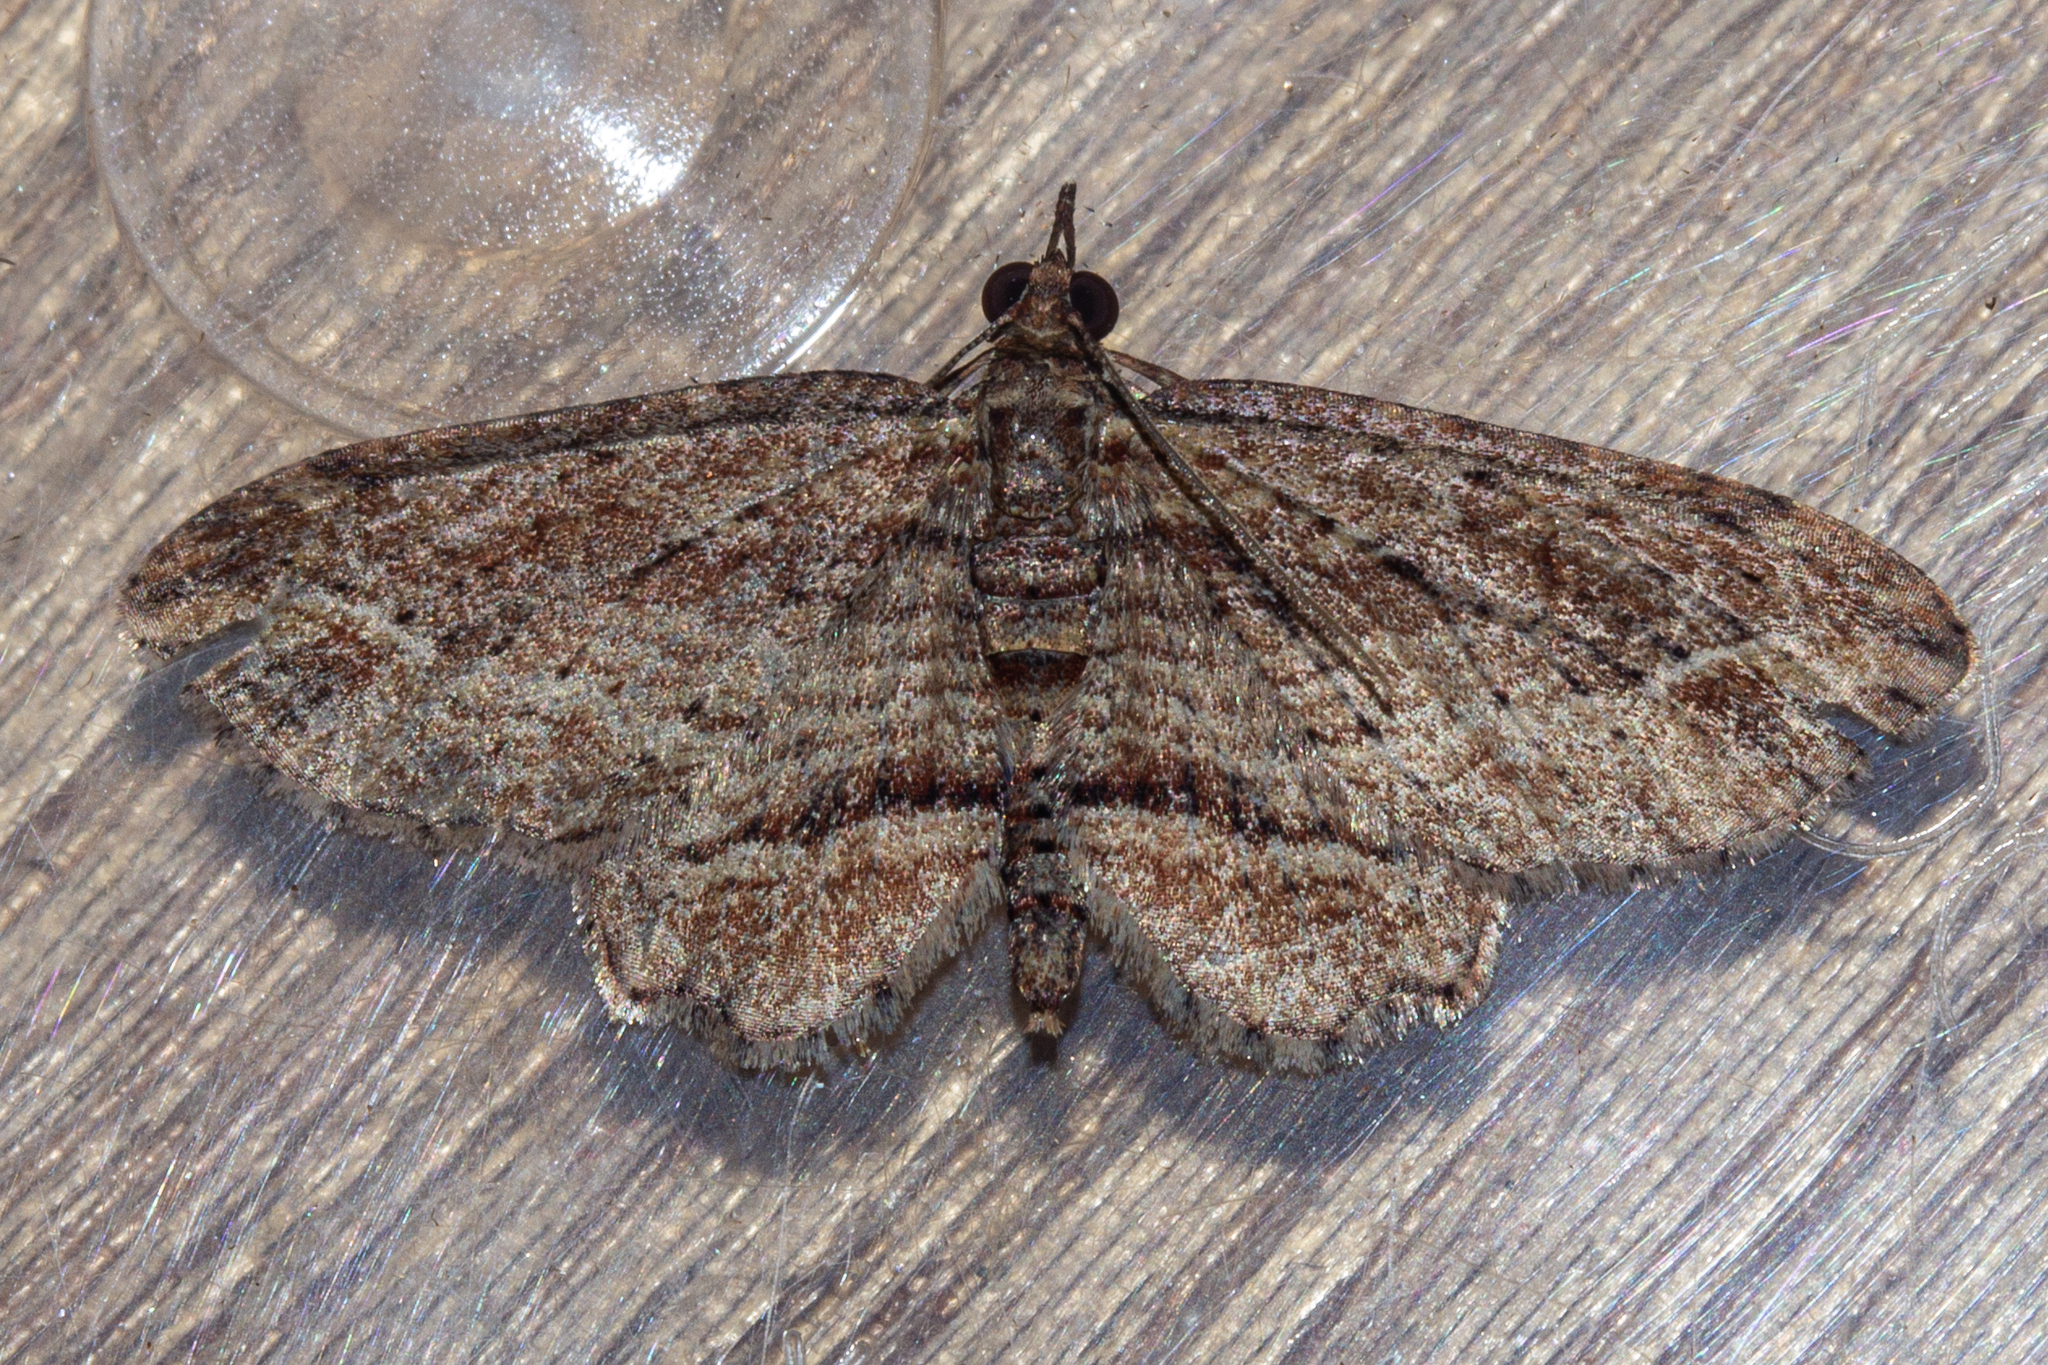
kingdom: Animalia
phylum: Arthropoda
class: Insecta
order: Lepidoptera
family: Geometridae
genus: Chloroclystis
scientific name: Chloroclystis filata
